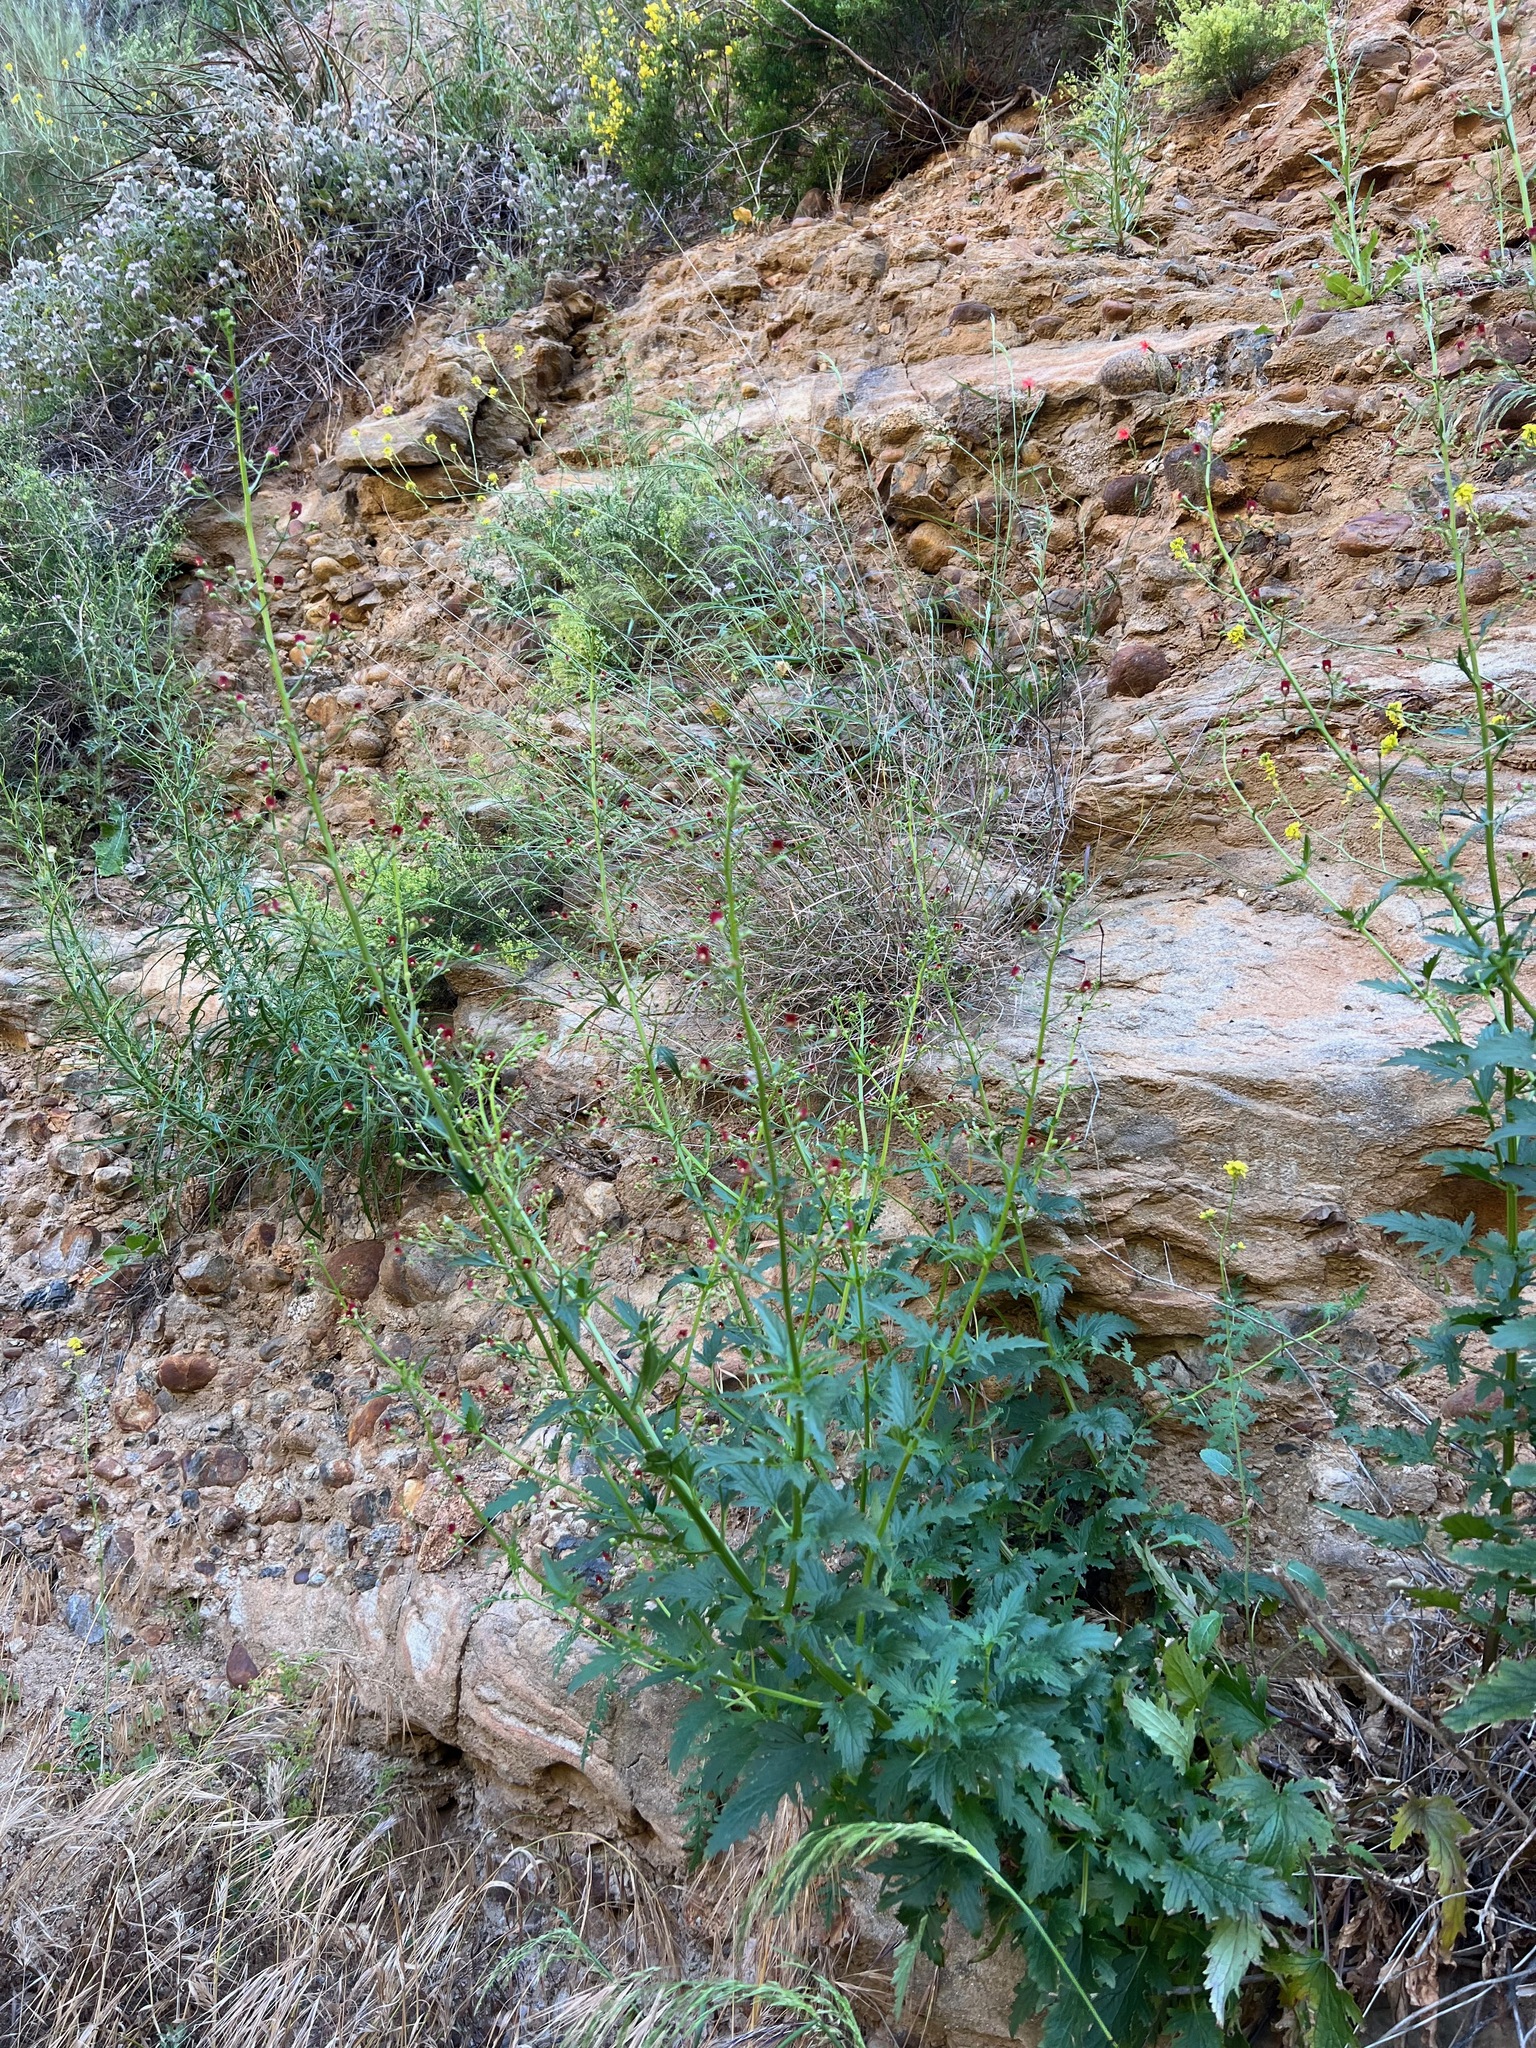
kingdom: Plantae
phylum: Tracheophyta
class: Magnoliopsida
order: Lamiales
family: Scrophulariaceae
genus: Scrophularia
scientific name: Scrophularia californica
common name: California figwort
